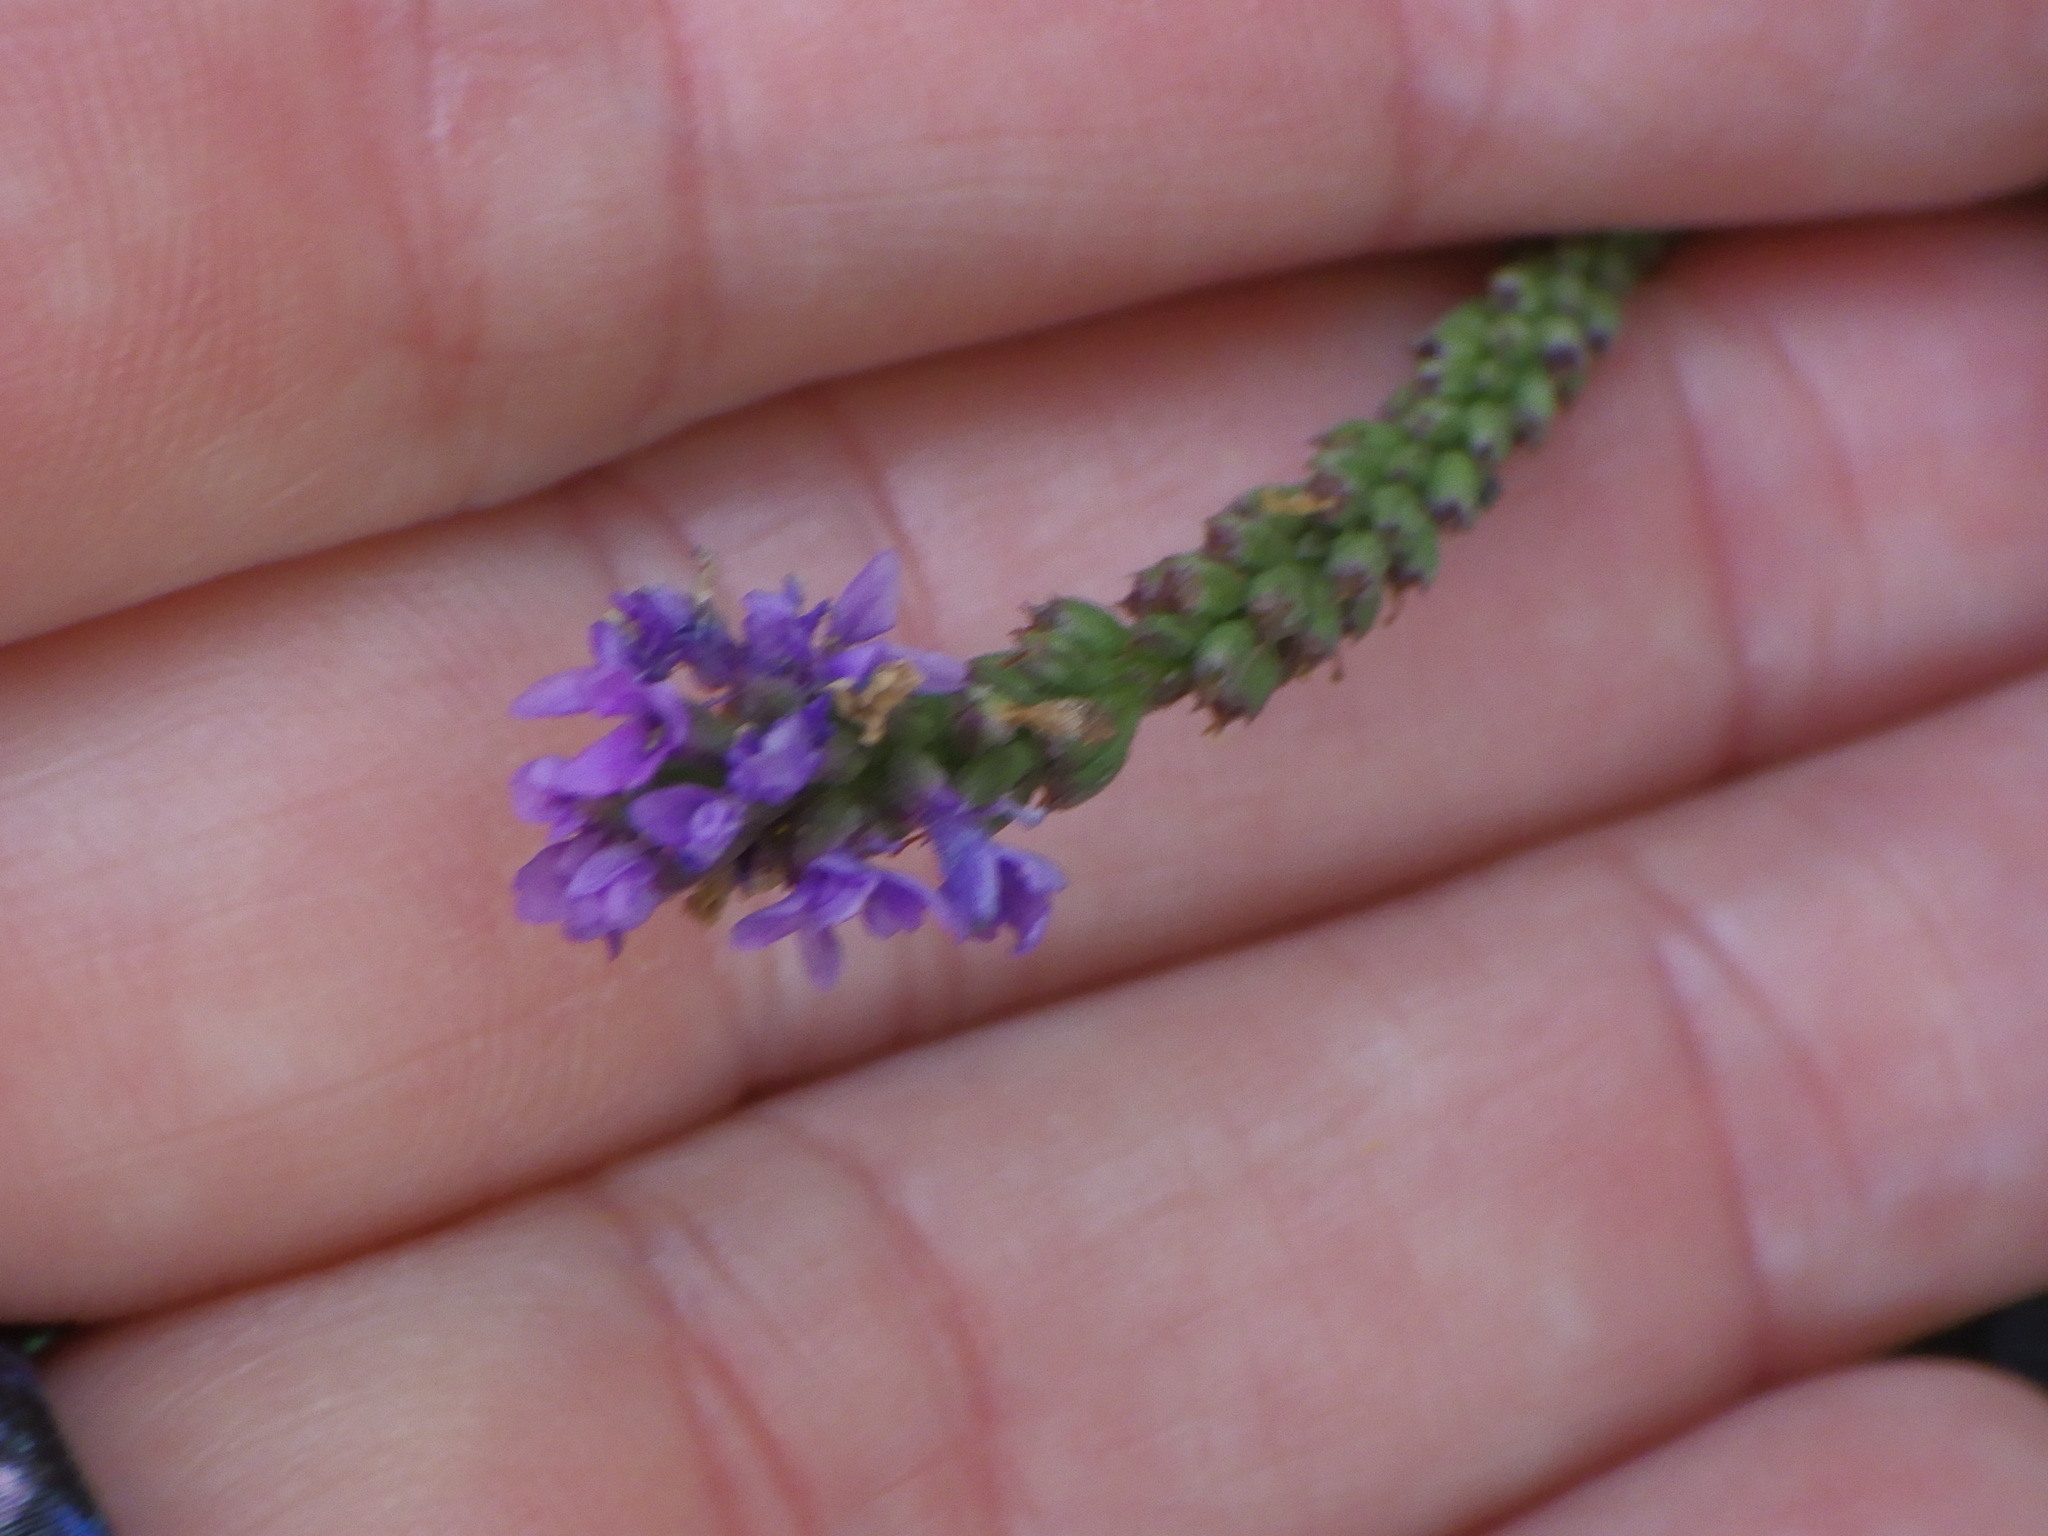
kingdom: Plantae
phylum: Tracheophyta
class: Magnoliopsida
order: Lamiales
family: Verbenaceae
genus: Verbena
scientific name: Verbena hastata
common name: American blue vervain
